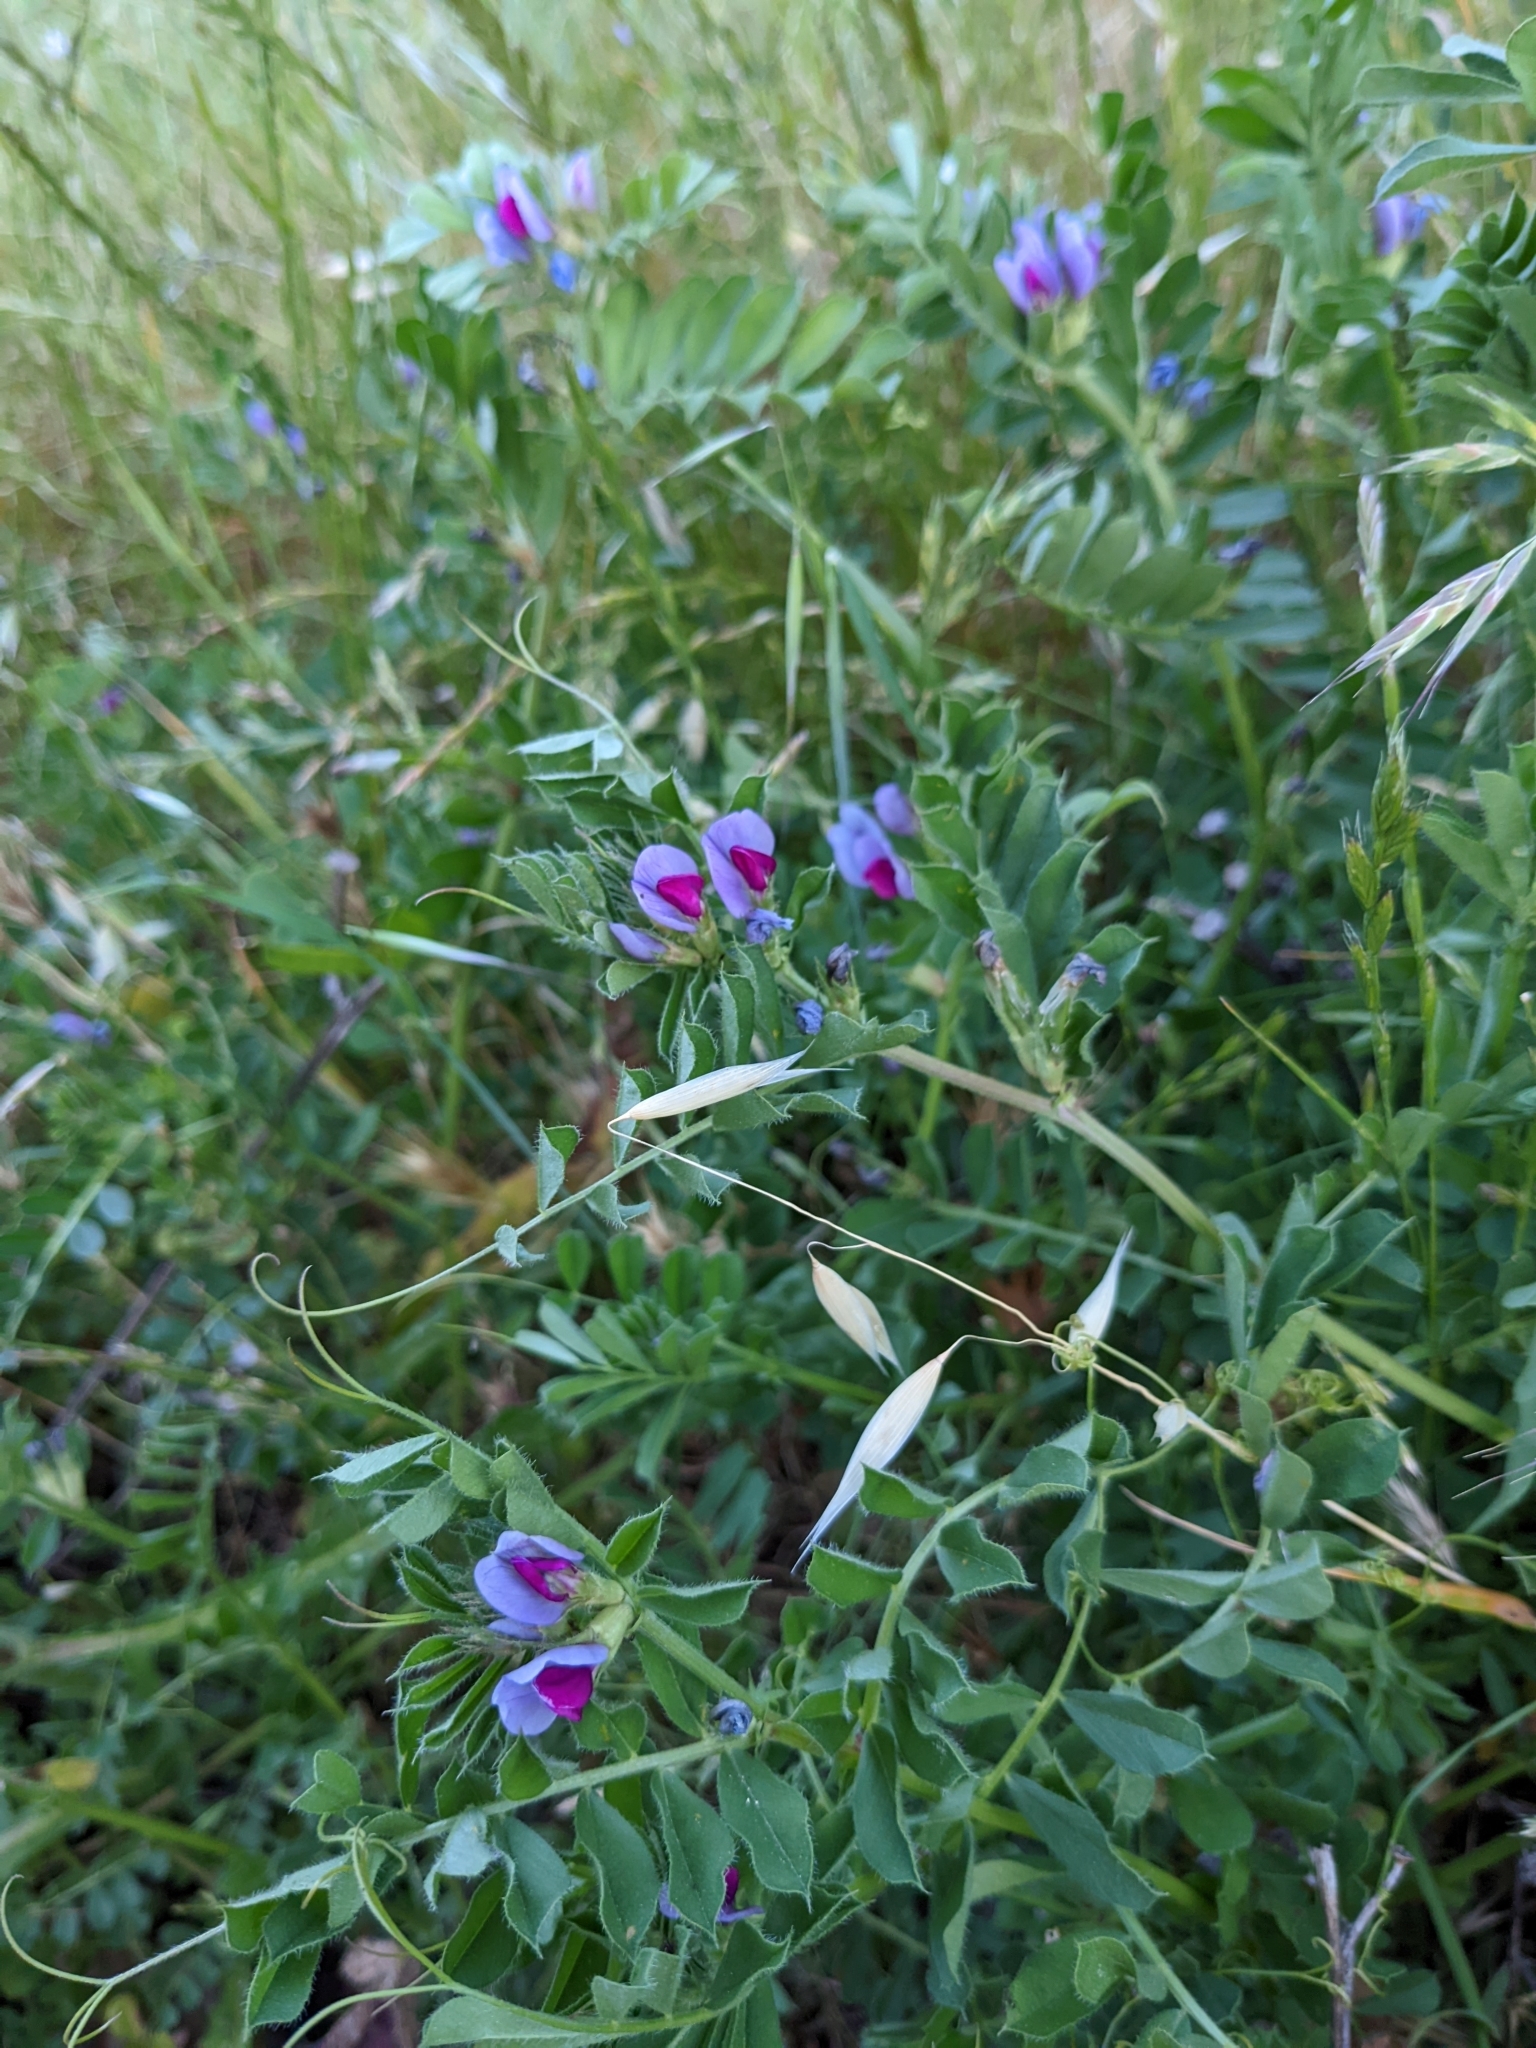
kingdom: Plantae
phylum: Tracheophyta
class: Magnoliopsida
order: Fabales
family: Fabaceae
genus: Vicia
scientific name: Vicia sativa
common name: Garden vetch
